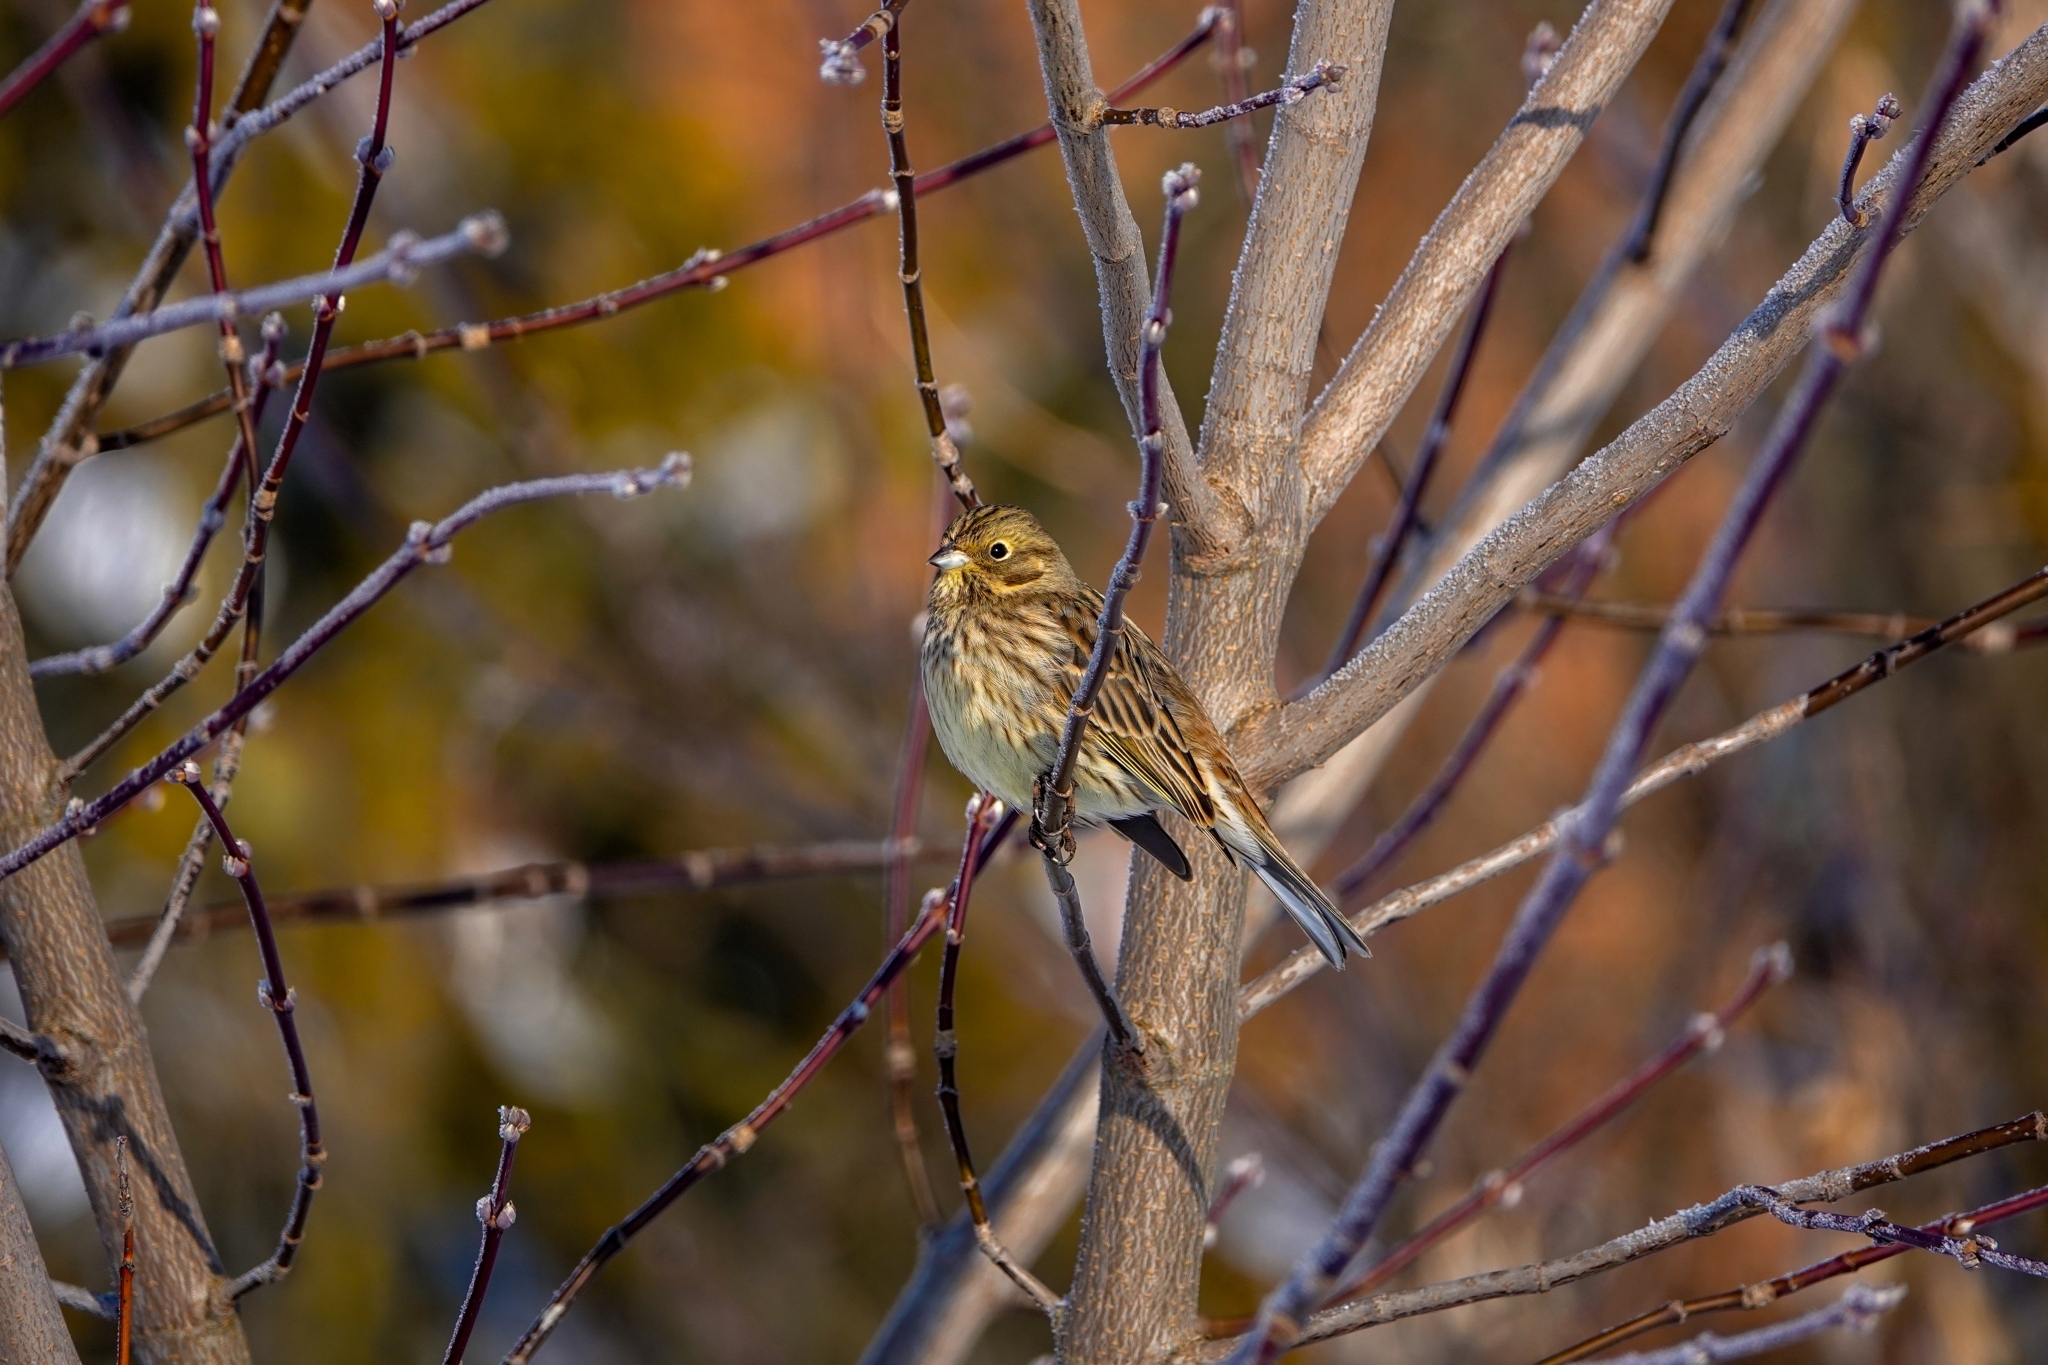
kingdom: Animalia
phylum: Chordata
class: Aves
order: Passeriformes
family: Emberizidae
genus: Emberiza
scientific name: Emberiza citrinella
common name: Yellowhammer
